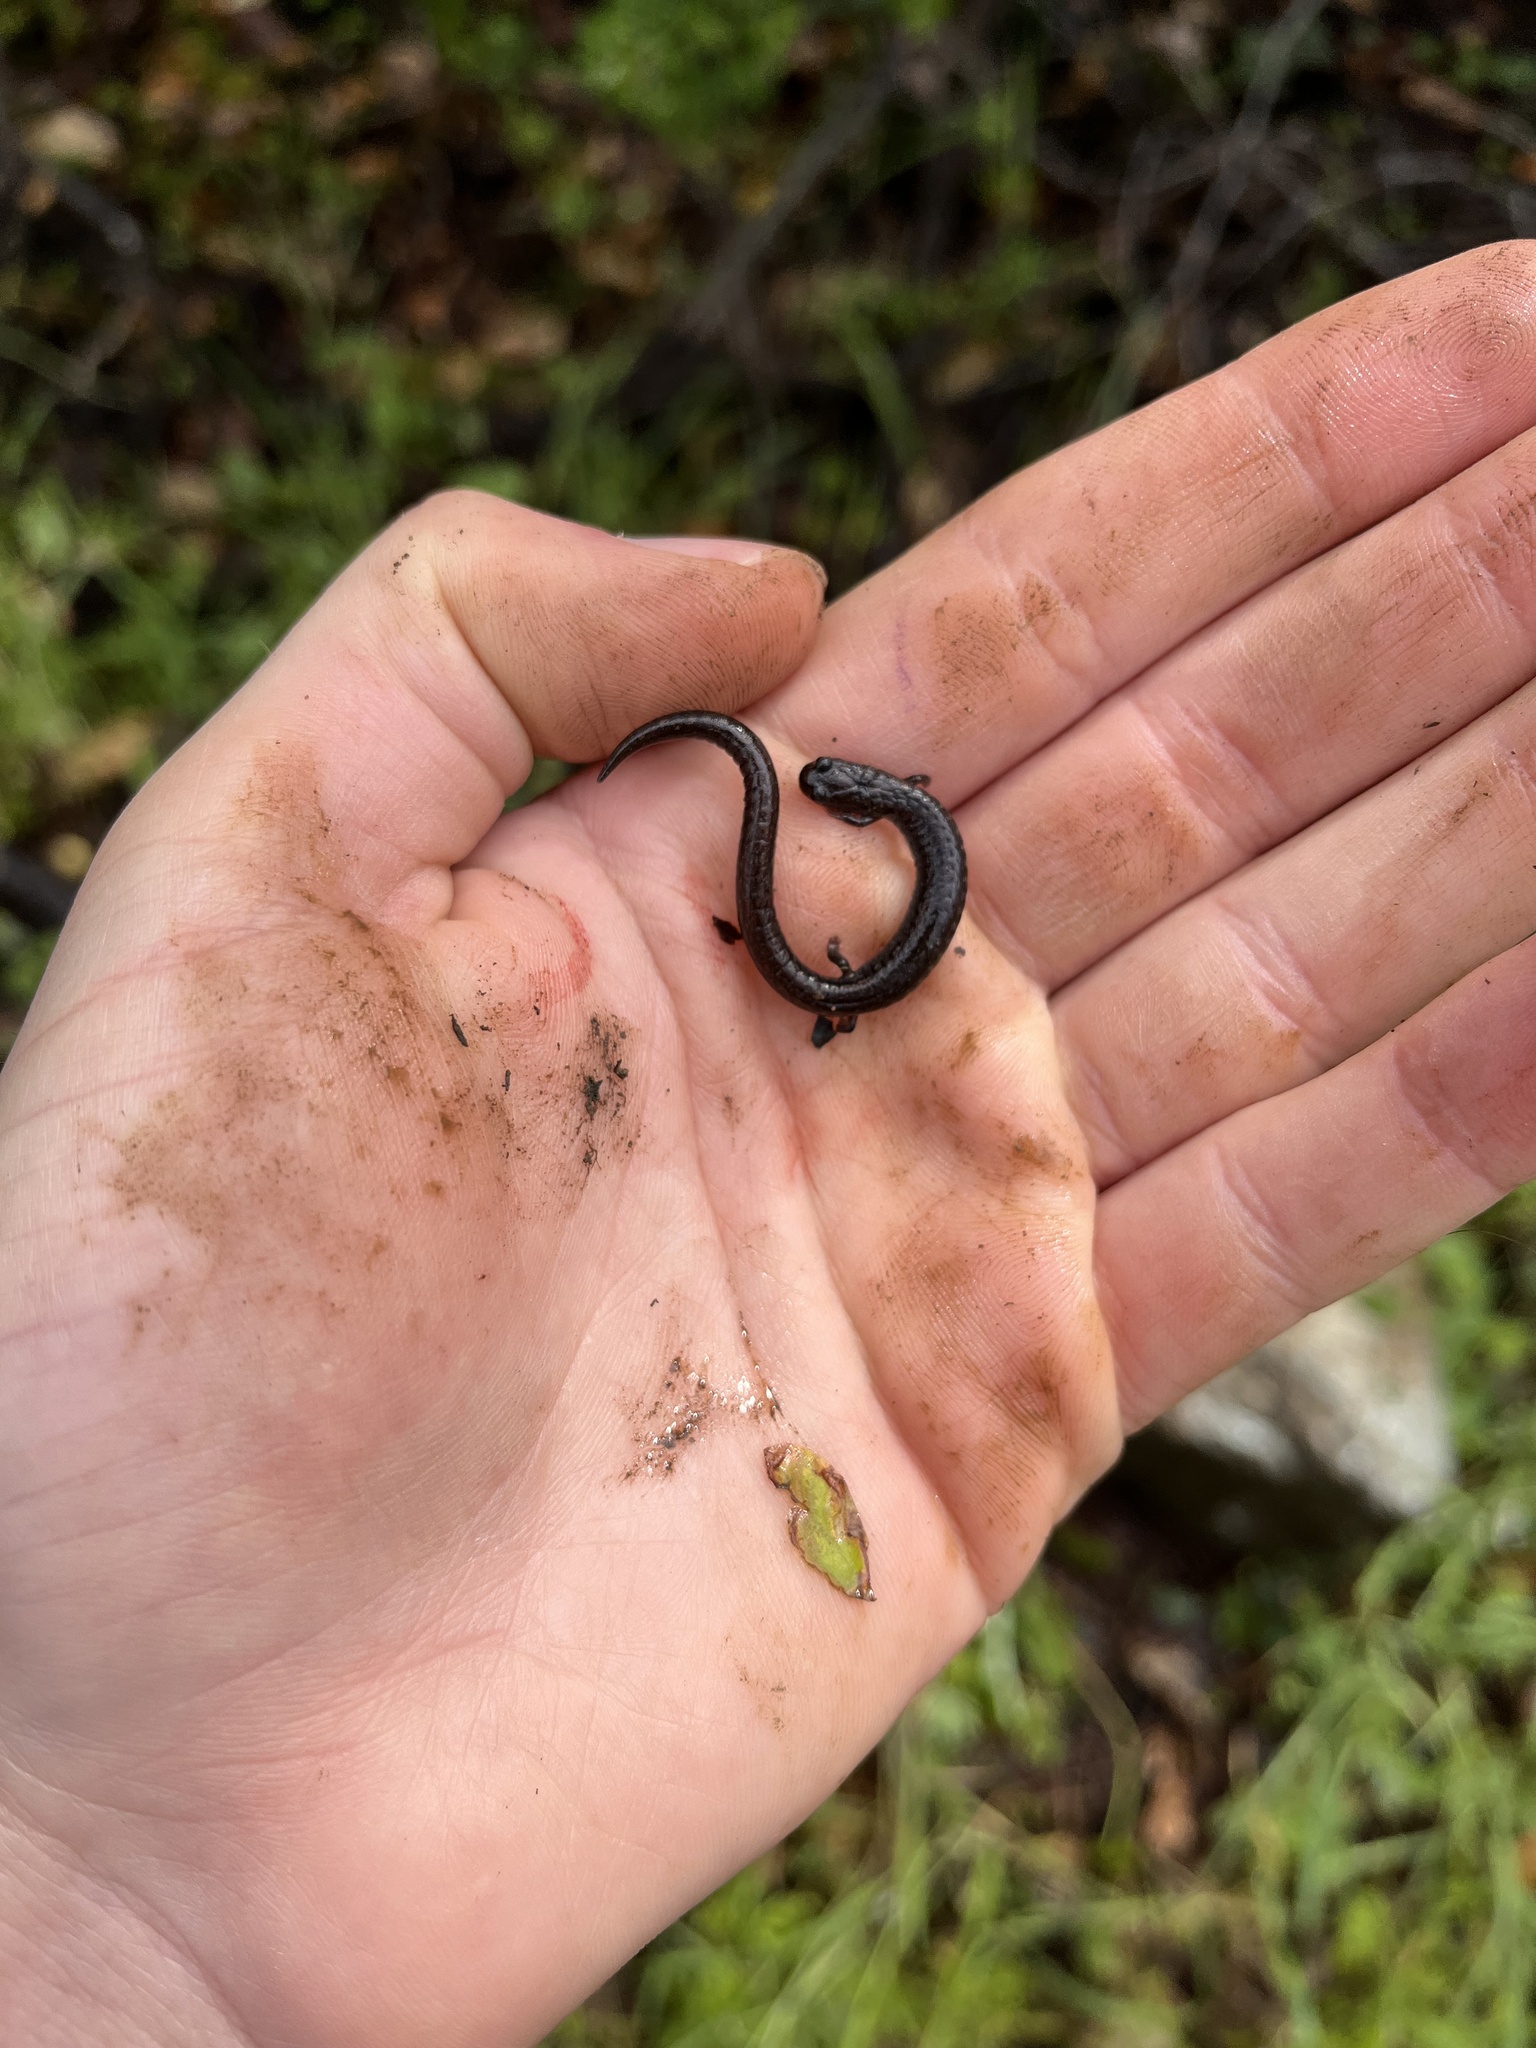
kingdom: Animalia
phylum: Chordata
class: Amphibia
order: Caudata
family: Plethodontidae
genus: Batrachoseps
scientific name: Batrachoseps attenuatus
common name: California slender salamander
